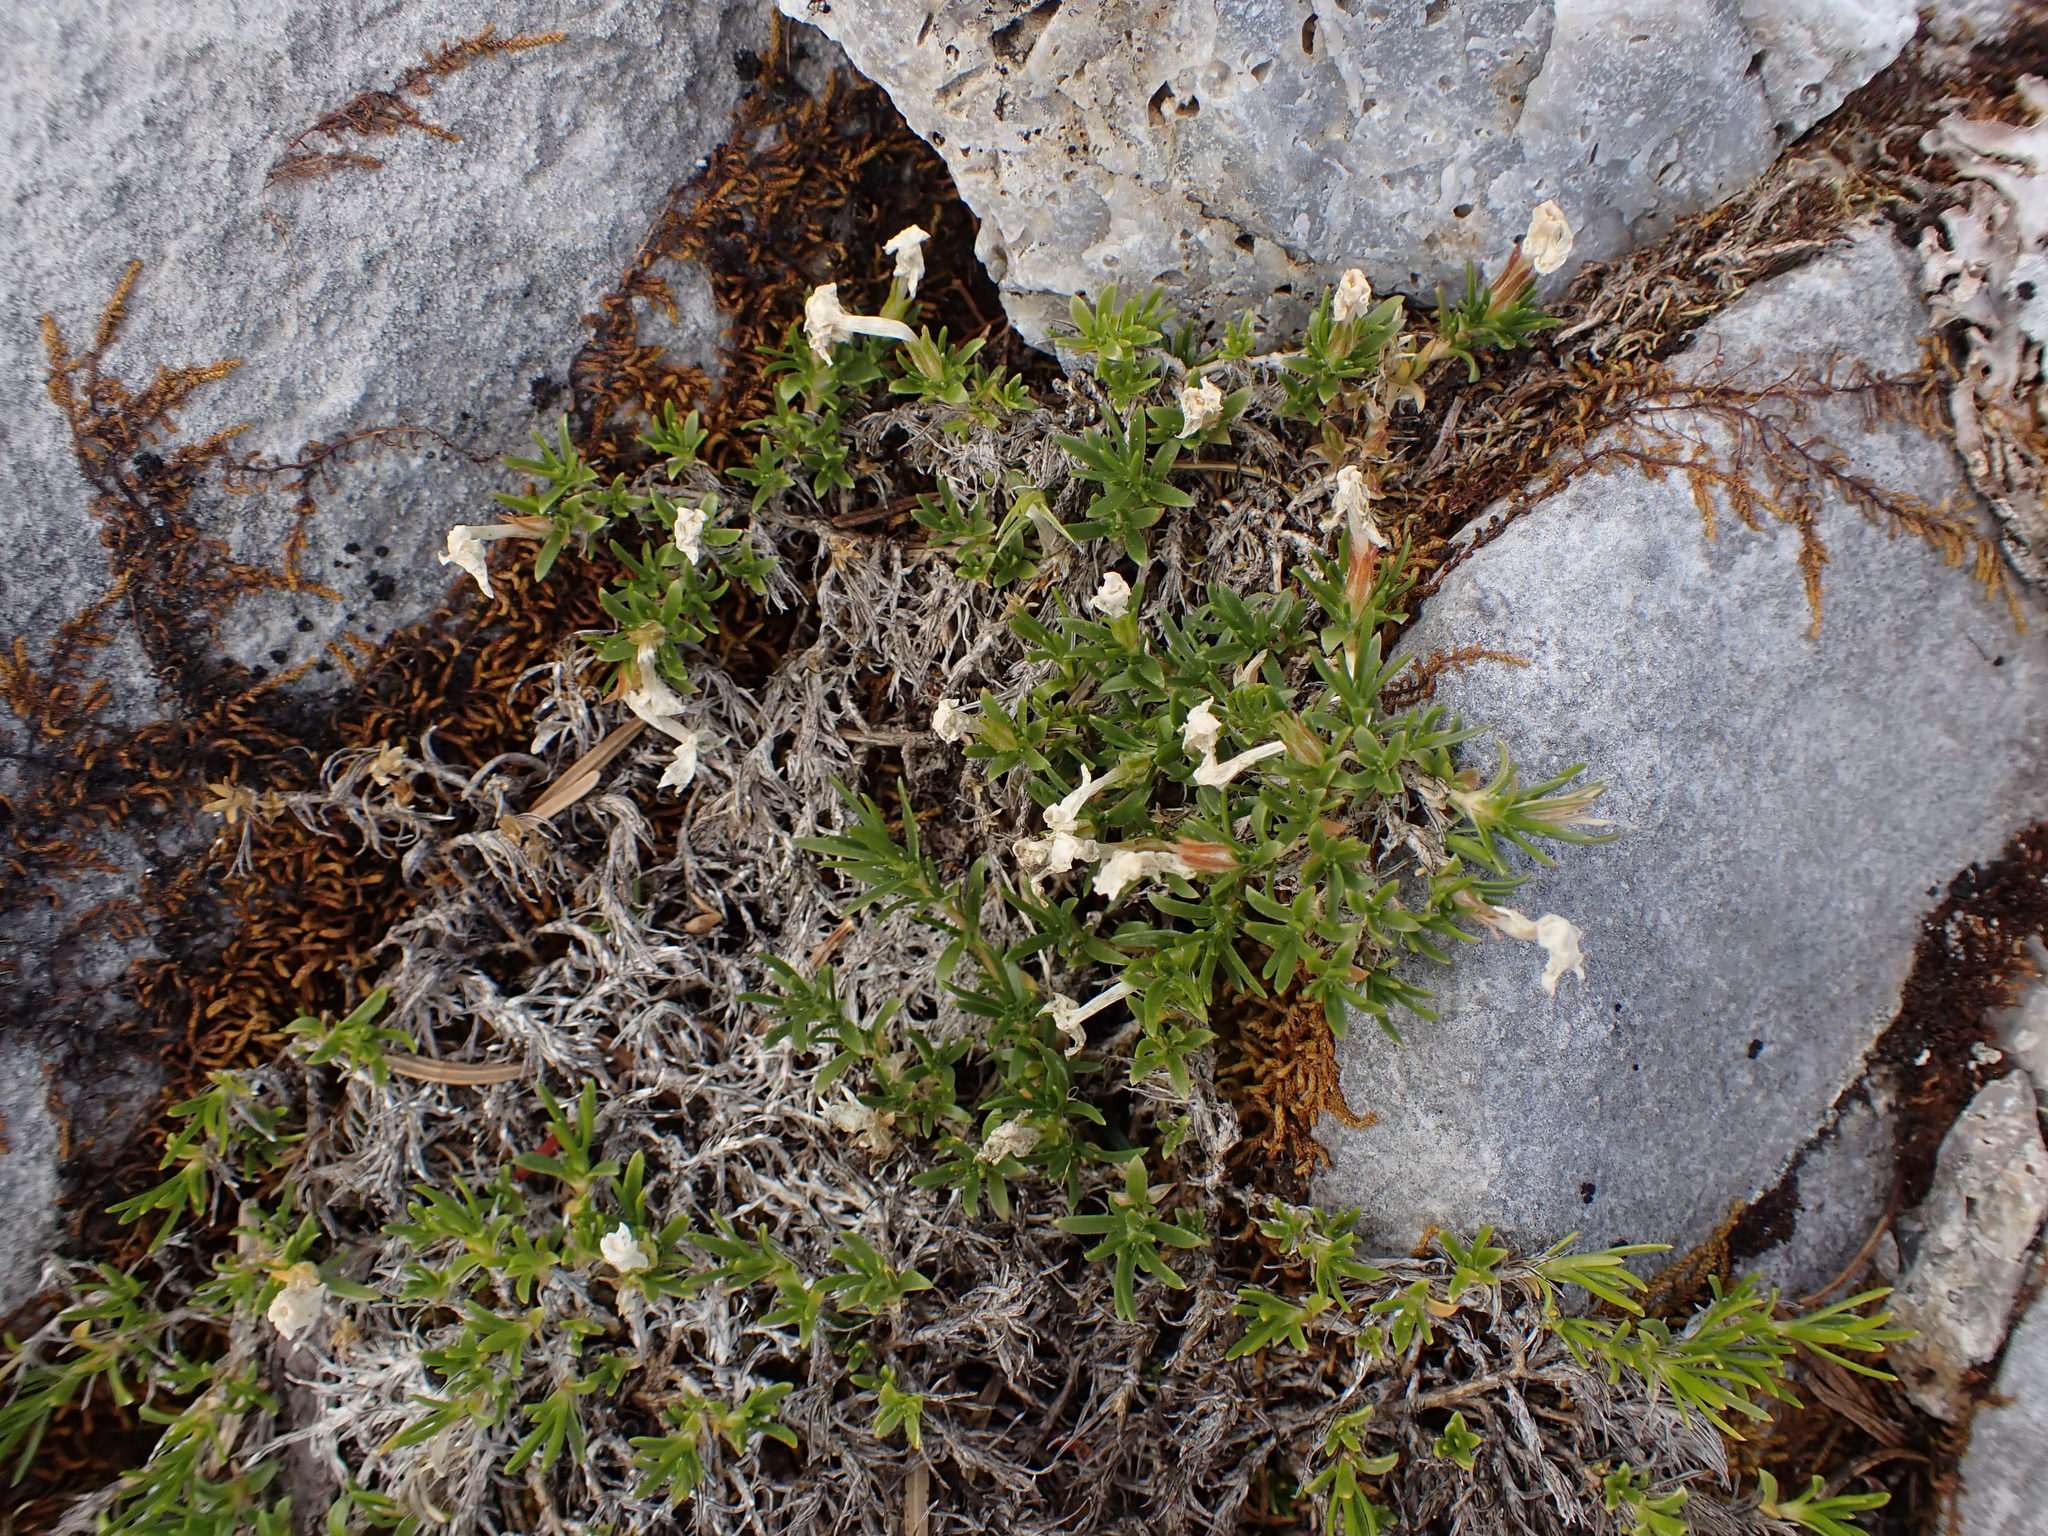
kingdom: Plantae
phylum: Tracheophyta
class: Magnoliopsida
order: Ericales
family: Polemoniaceae
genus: Phlox
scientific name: Phlox diffusa
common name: Mat phlox
